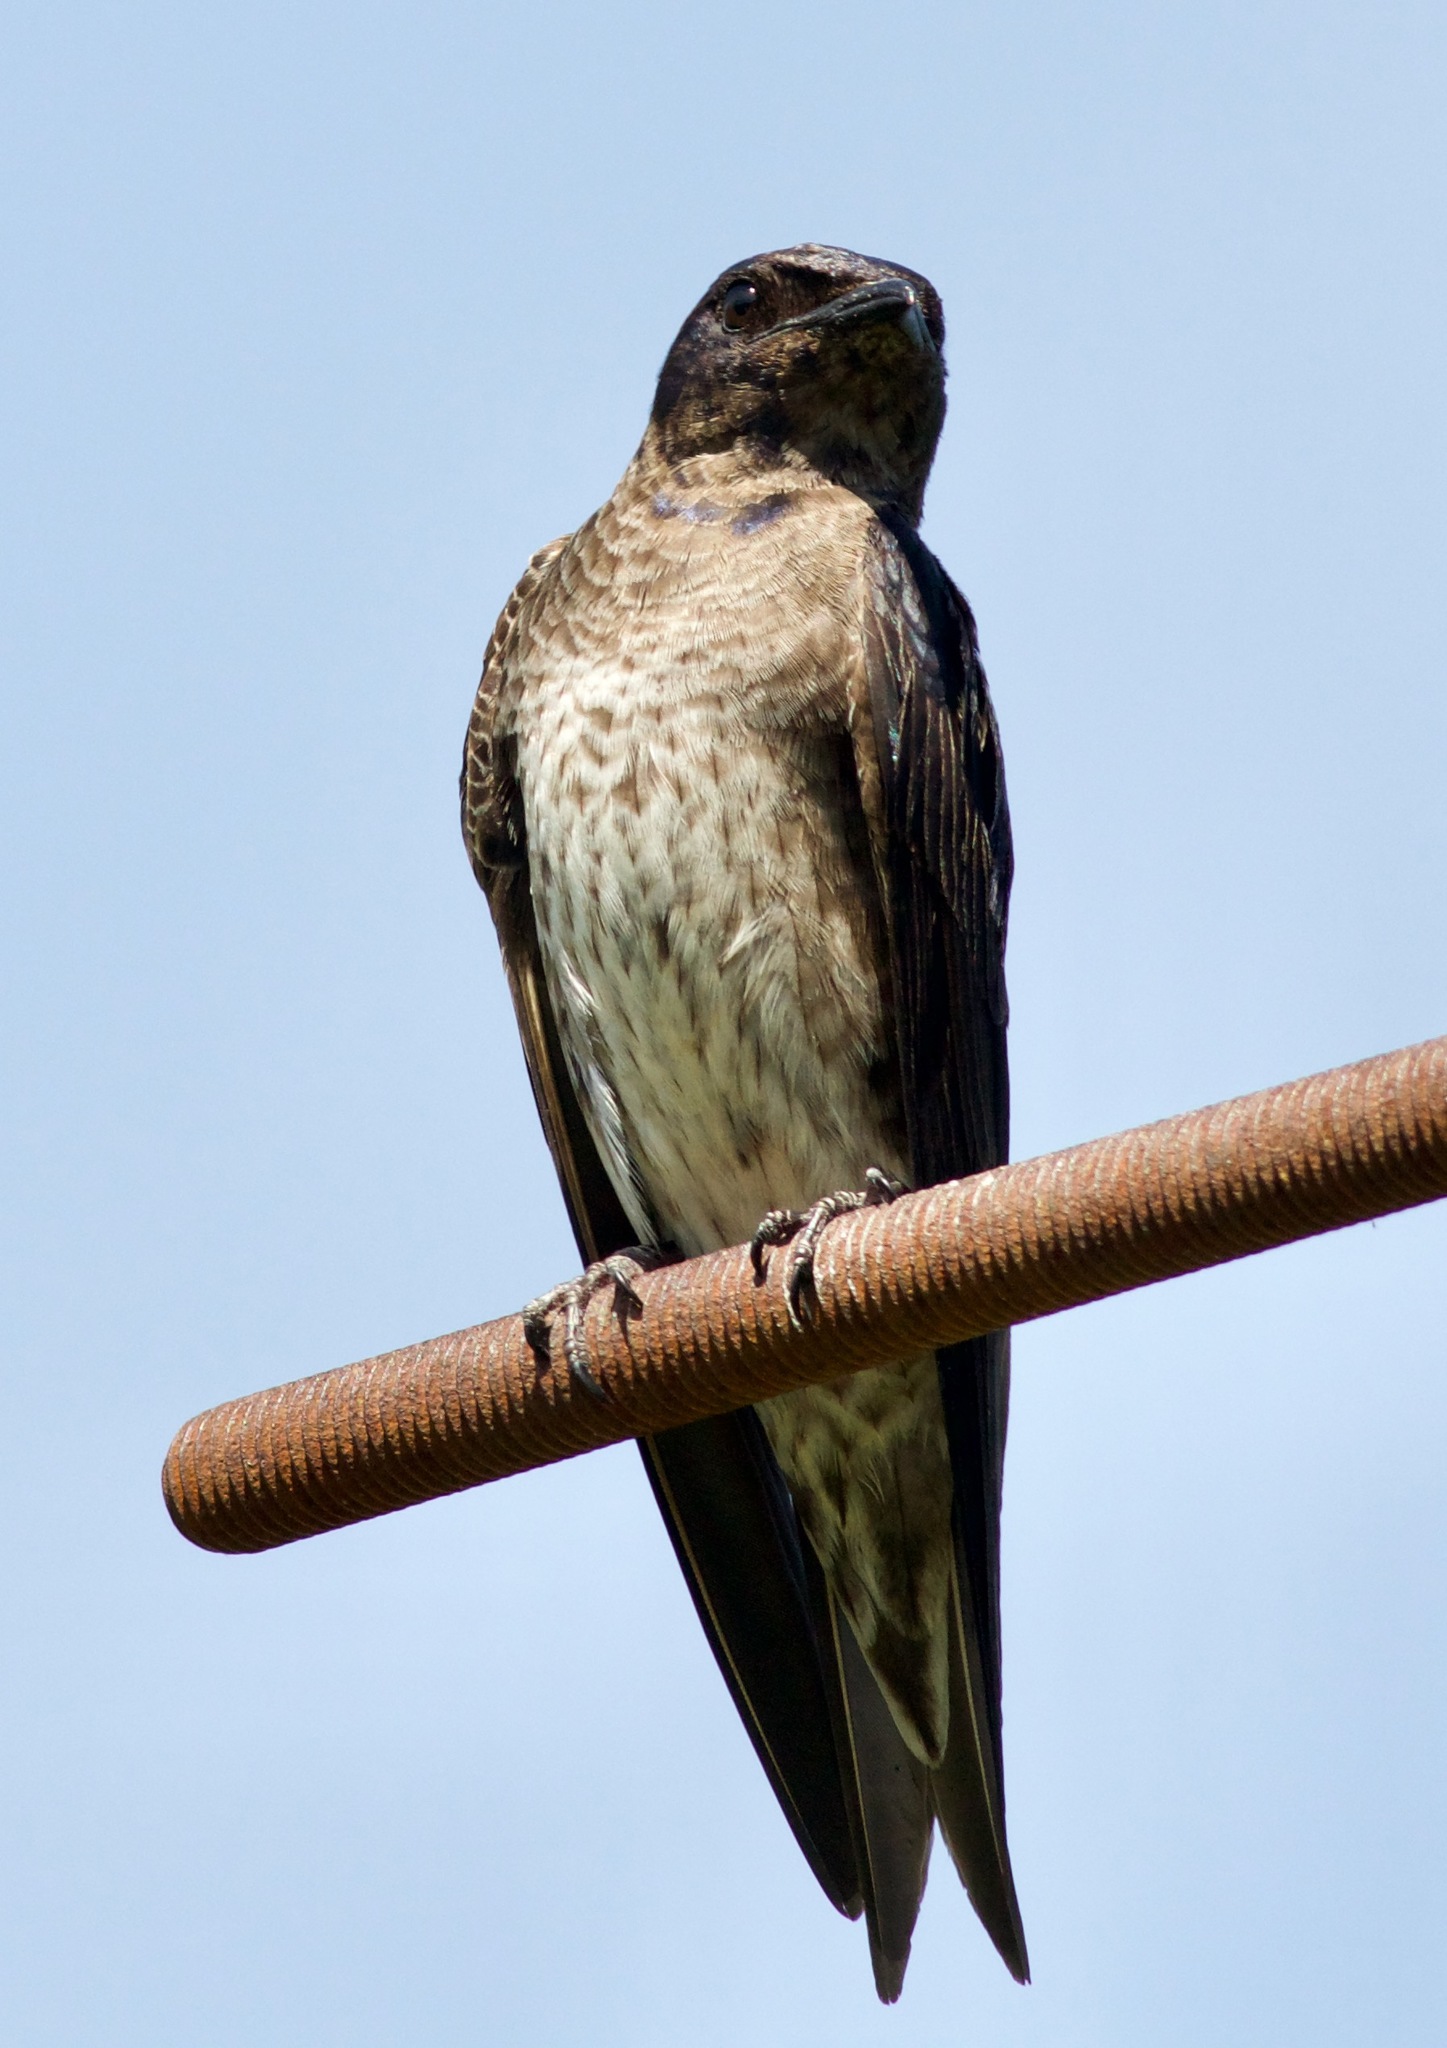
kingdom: Animalia
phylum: Chordata
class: Aves
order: Passeriformes
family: Hirundinidae
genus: Progne
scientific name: Progne subis
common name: Purple martin
